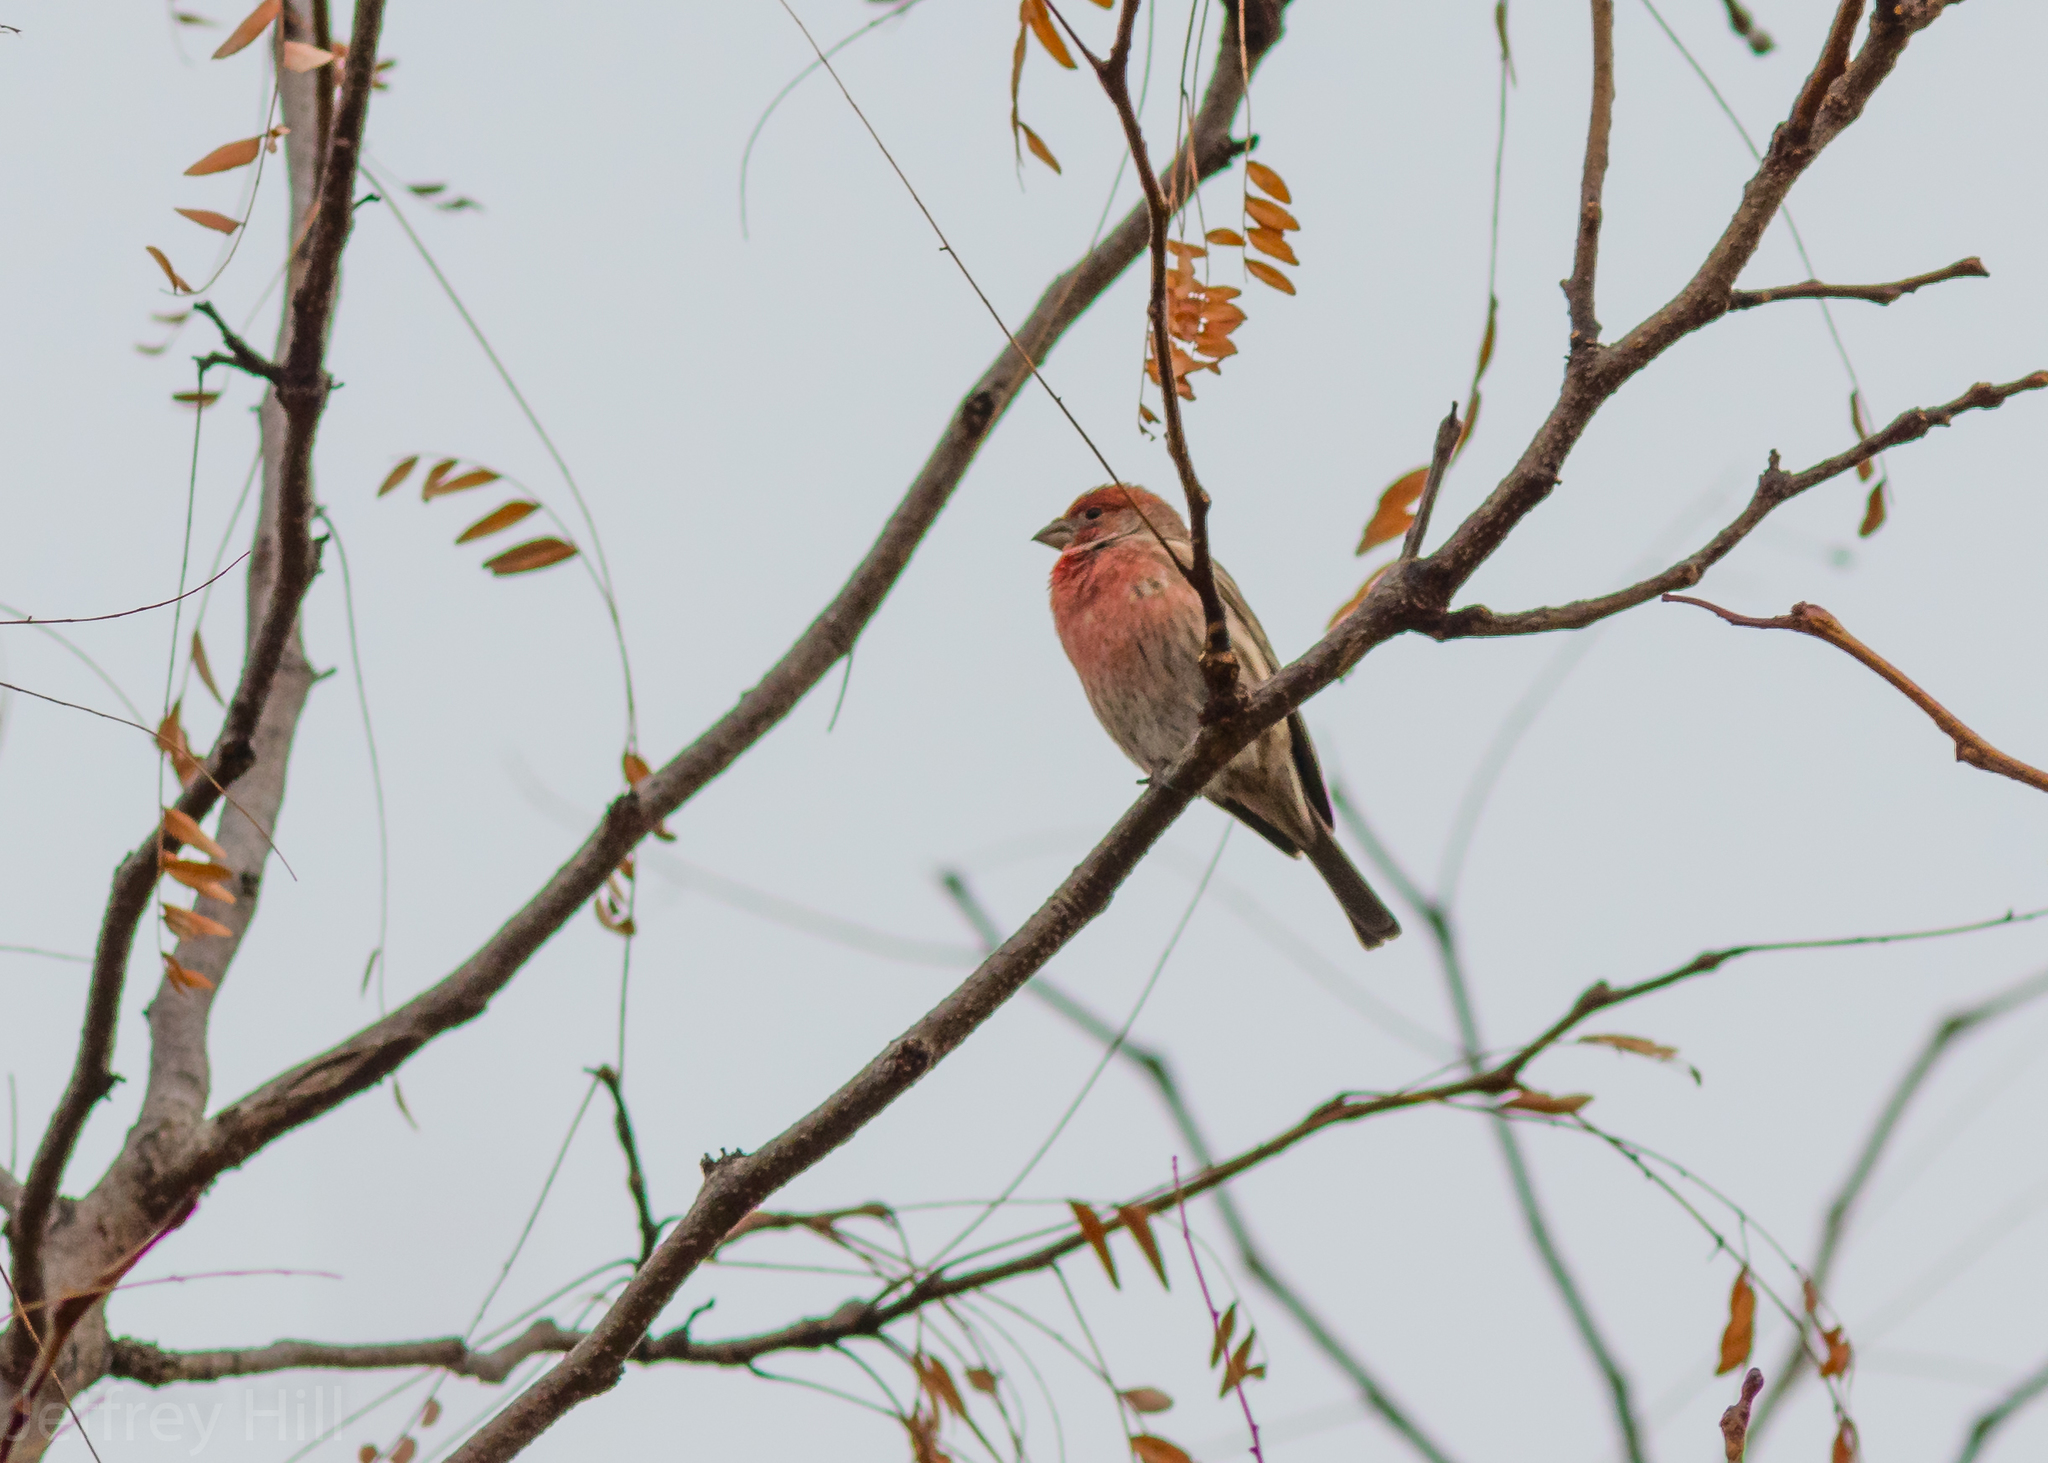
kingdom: Animalia
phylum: Chordata
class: Aves
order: Passeriformes
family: Fringillidae
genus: Haemorhous
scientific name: Haemorhous mexicanus
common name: House finch
